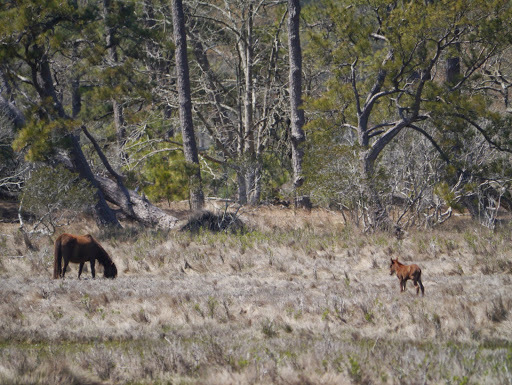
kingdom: Animalia
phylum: Chordata
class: Mammalia
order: Perissodactyla
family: Equidae
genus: Equus
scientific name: Equus caballus
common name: Horse
